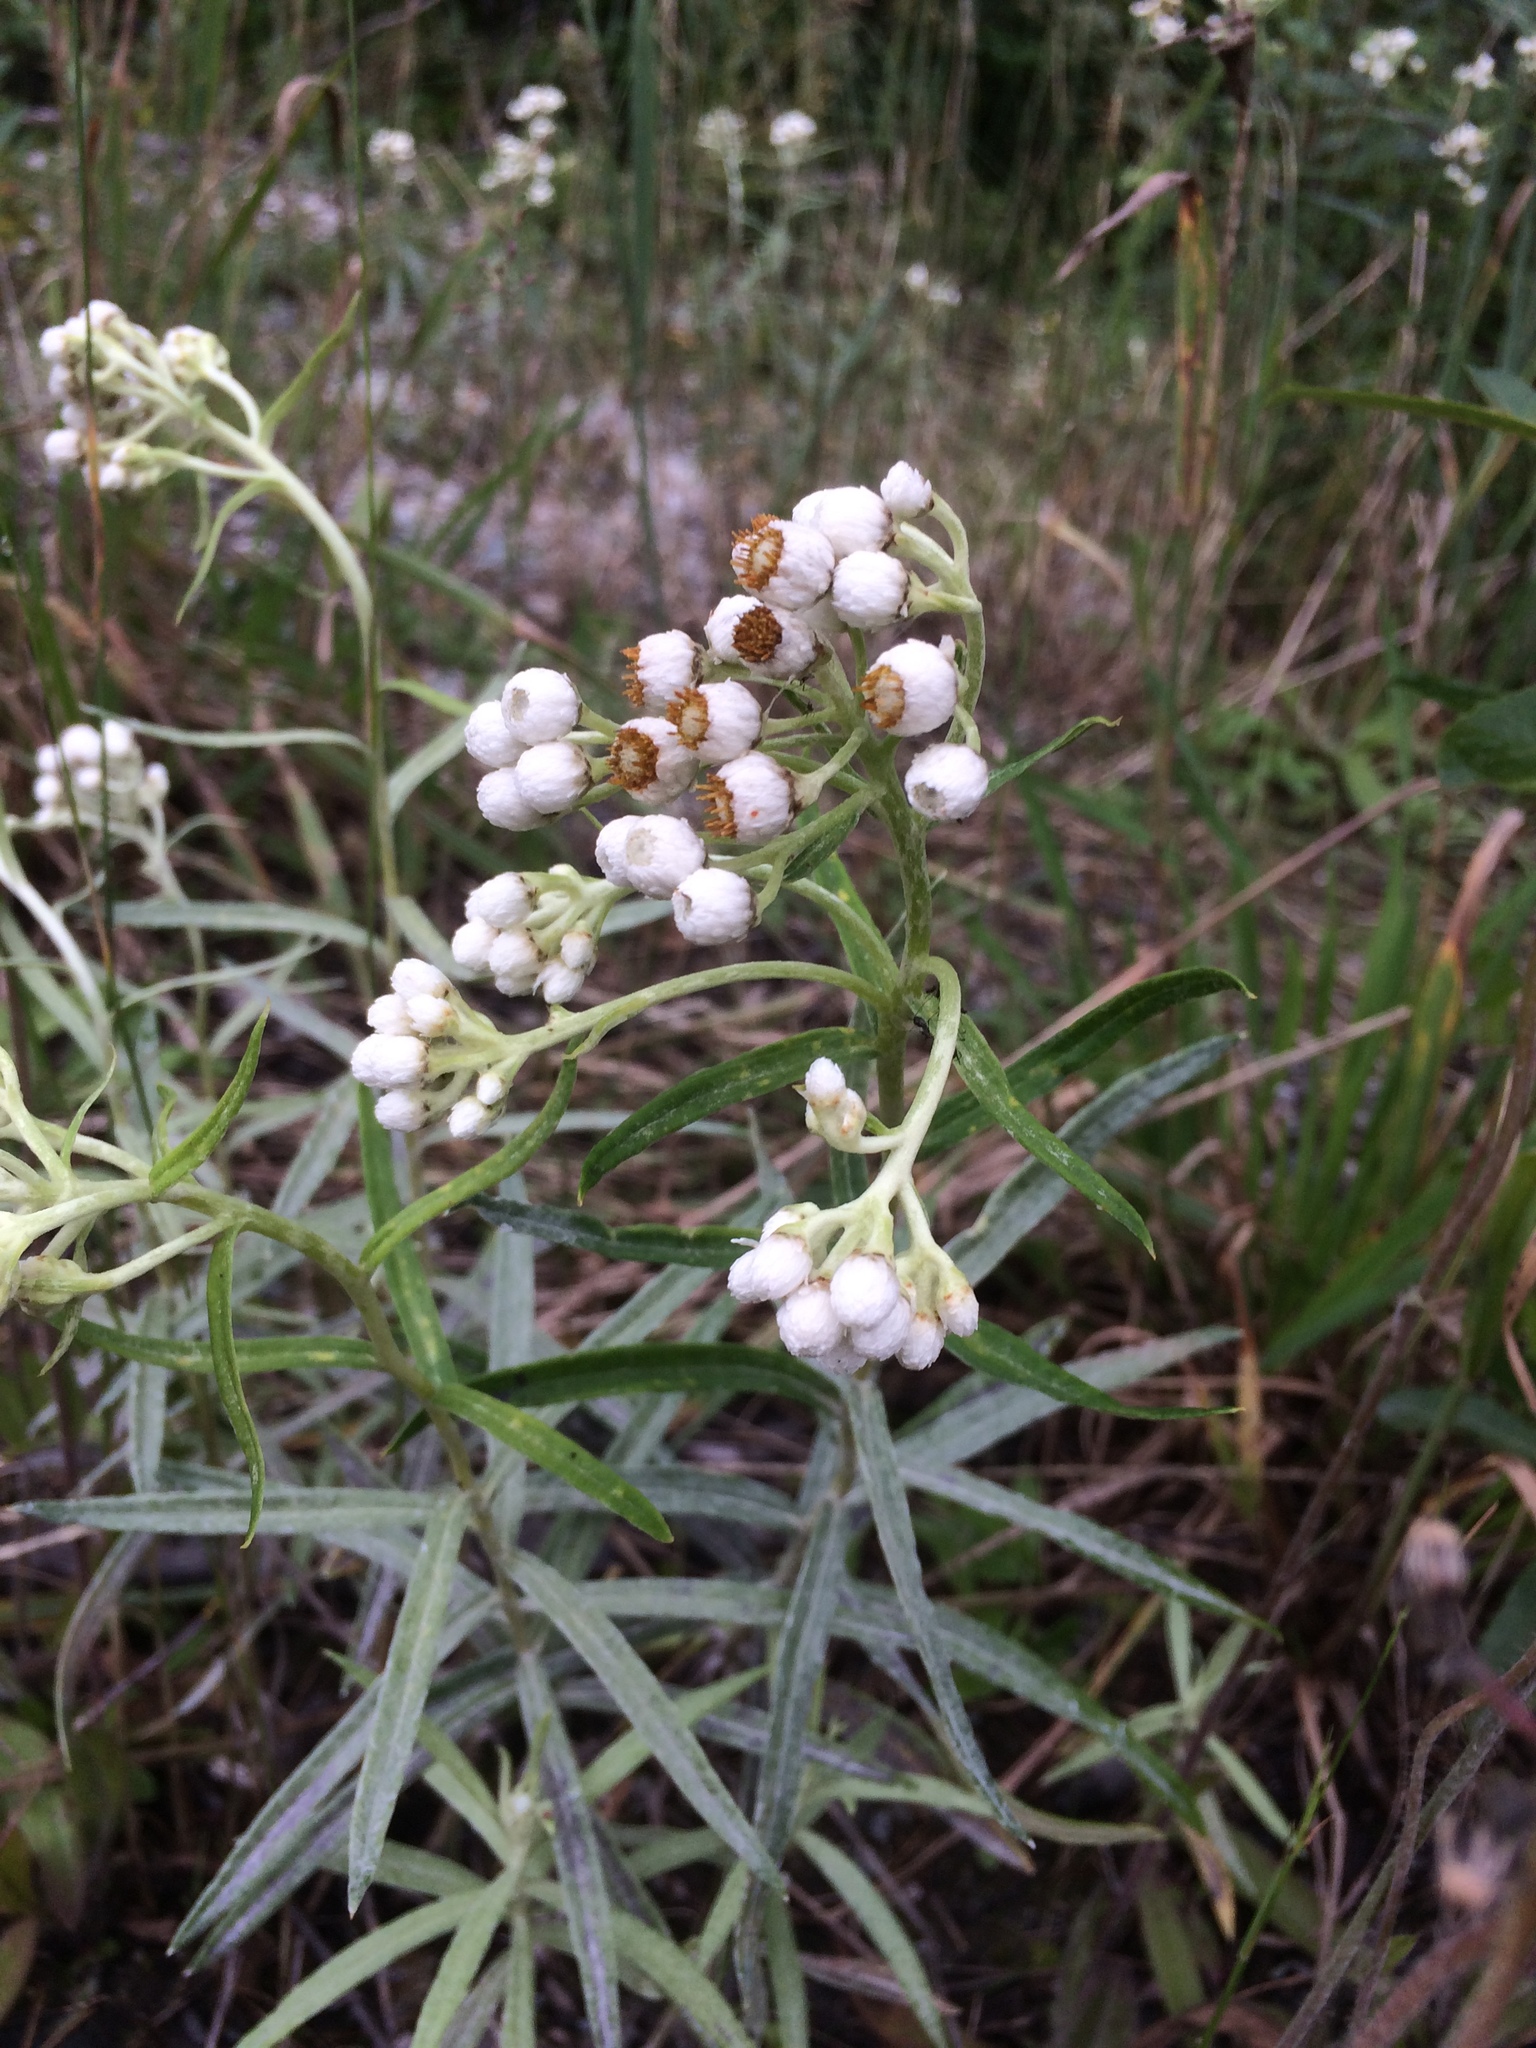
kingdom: Plantae
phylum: Tracheophyta
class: Magnoliopsida
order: Asterales
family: Asteraceae
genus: Anaphalis
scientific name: Anaphalis margaritacea
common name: Pearly everlasting
